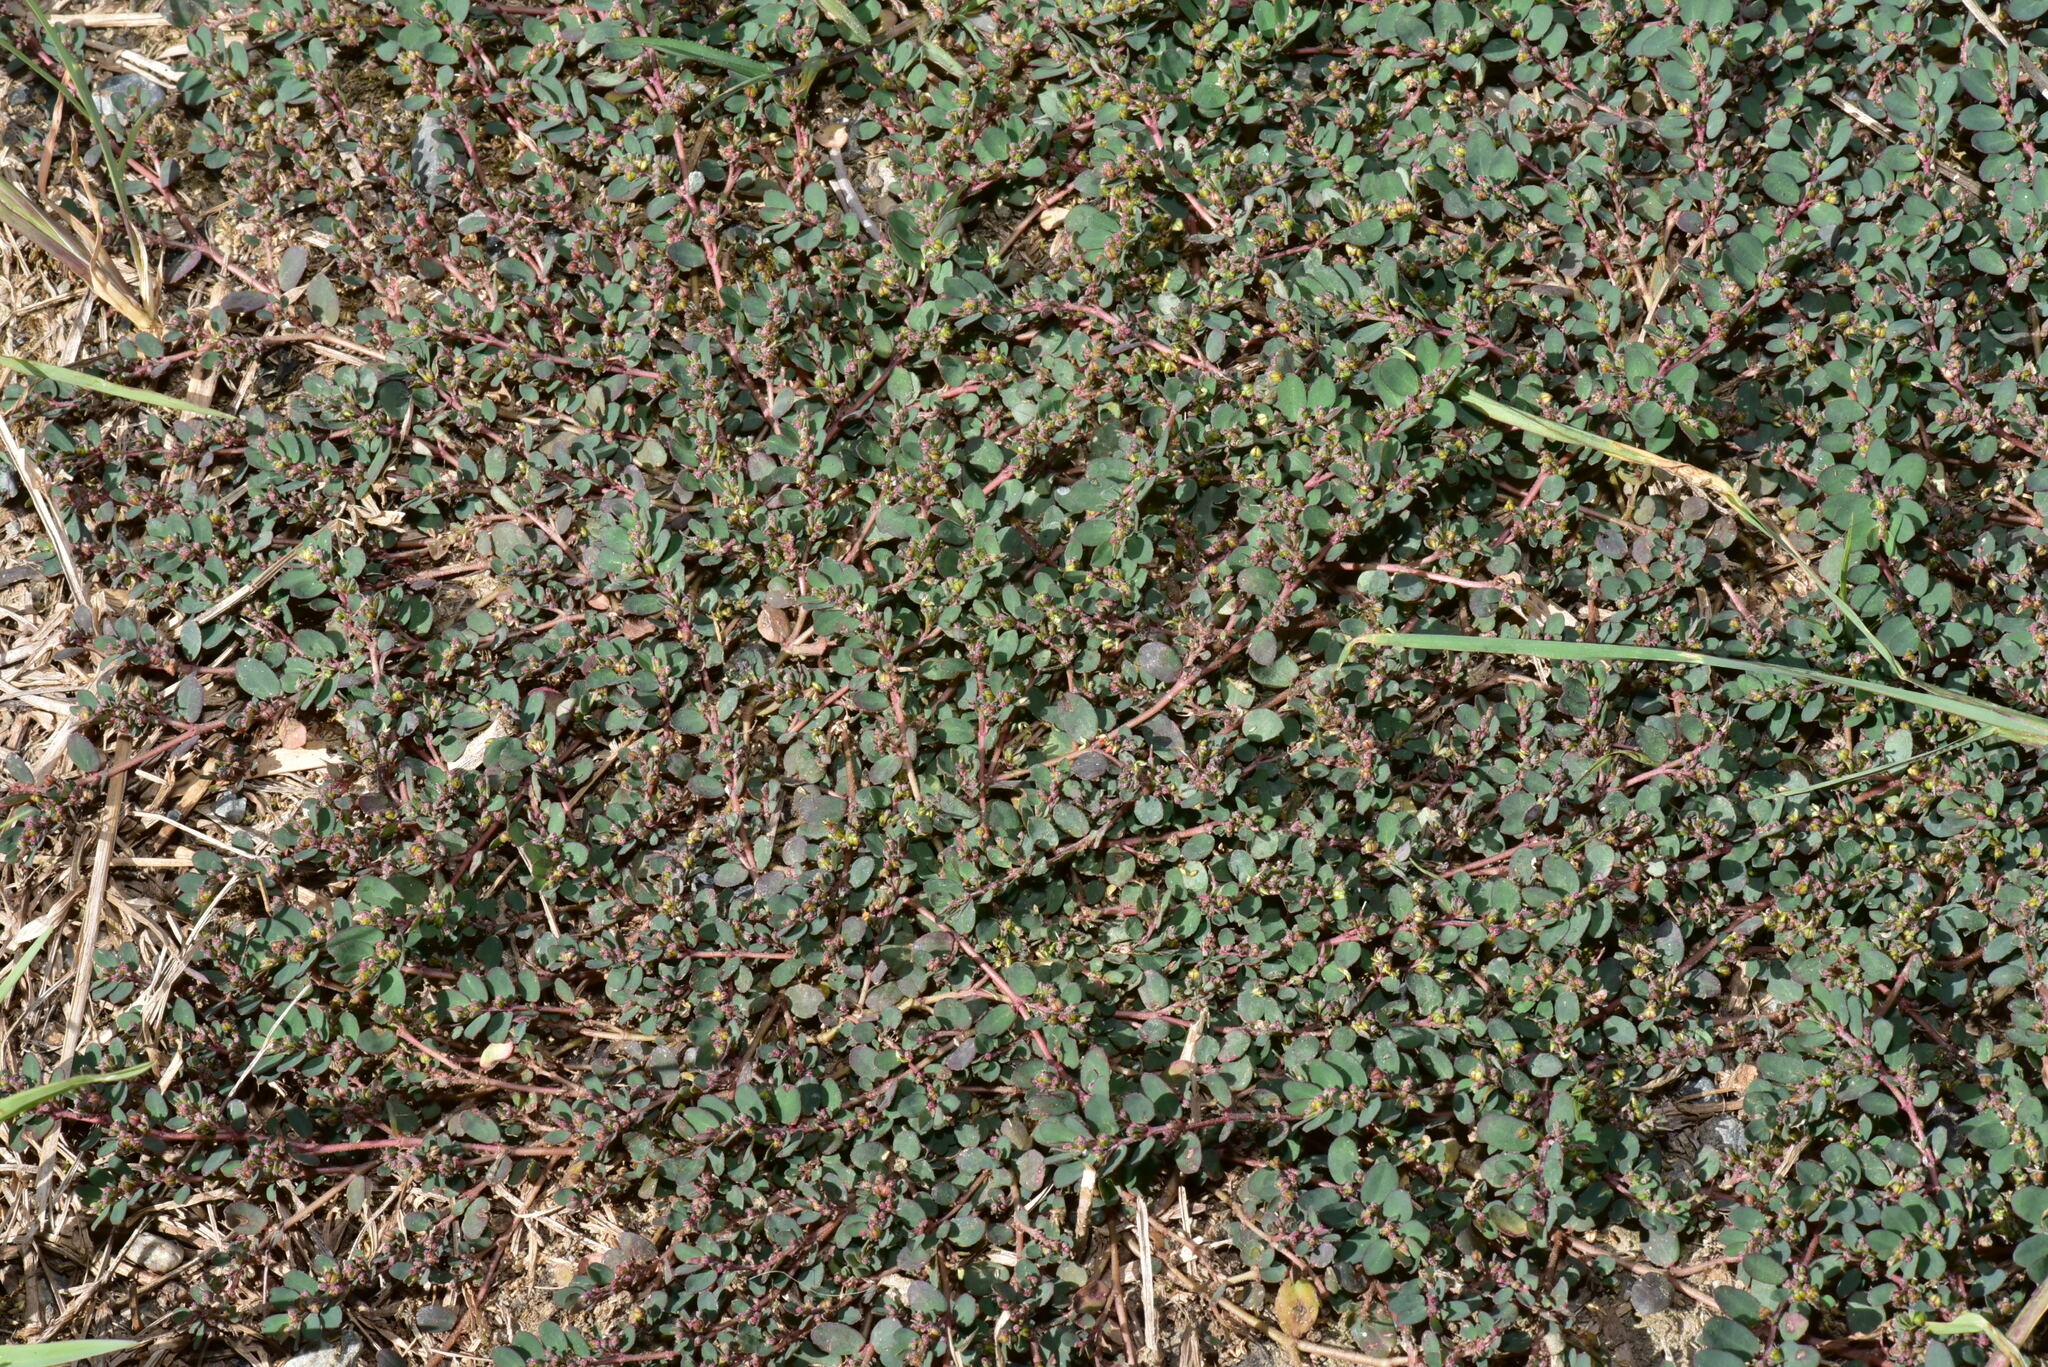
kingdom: Plantae
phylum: Tracheophyta
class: Magnoliopsida
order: Malpighiales
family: Euphorbiaceae
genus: Euphorbia
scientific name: Euphorbia prostrata
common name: Prostrate sandmat
